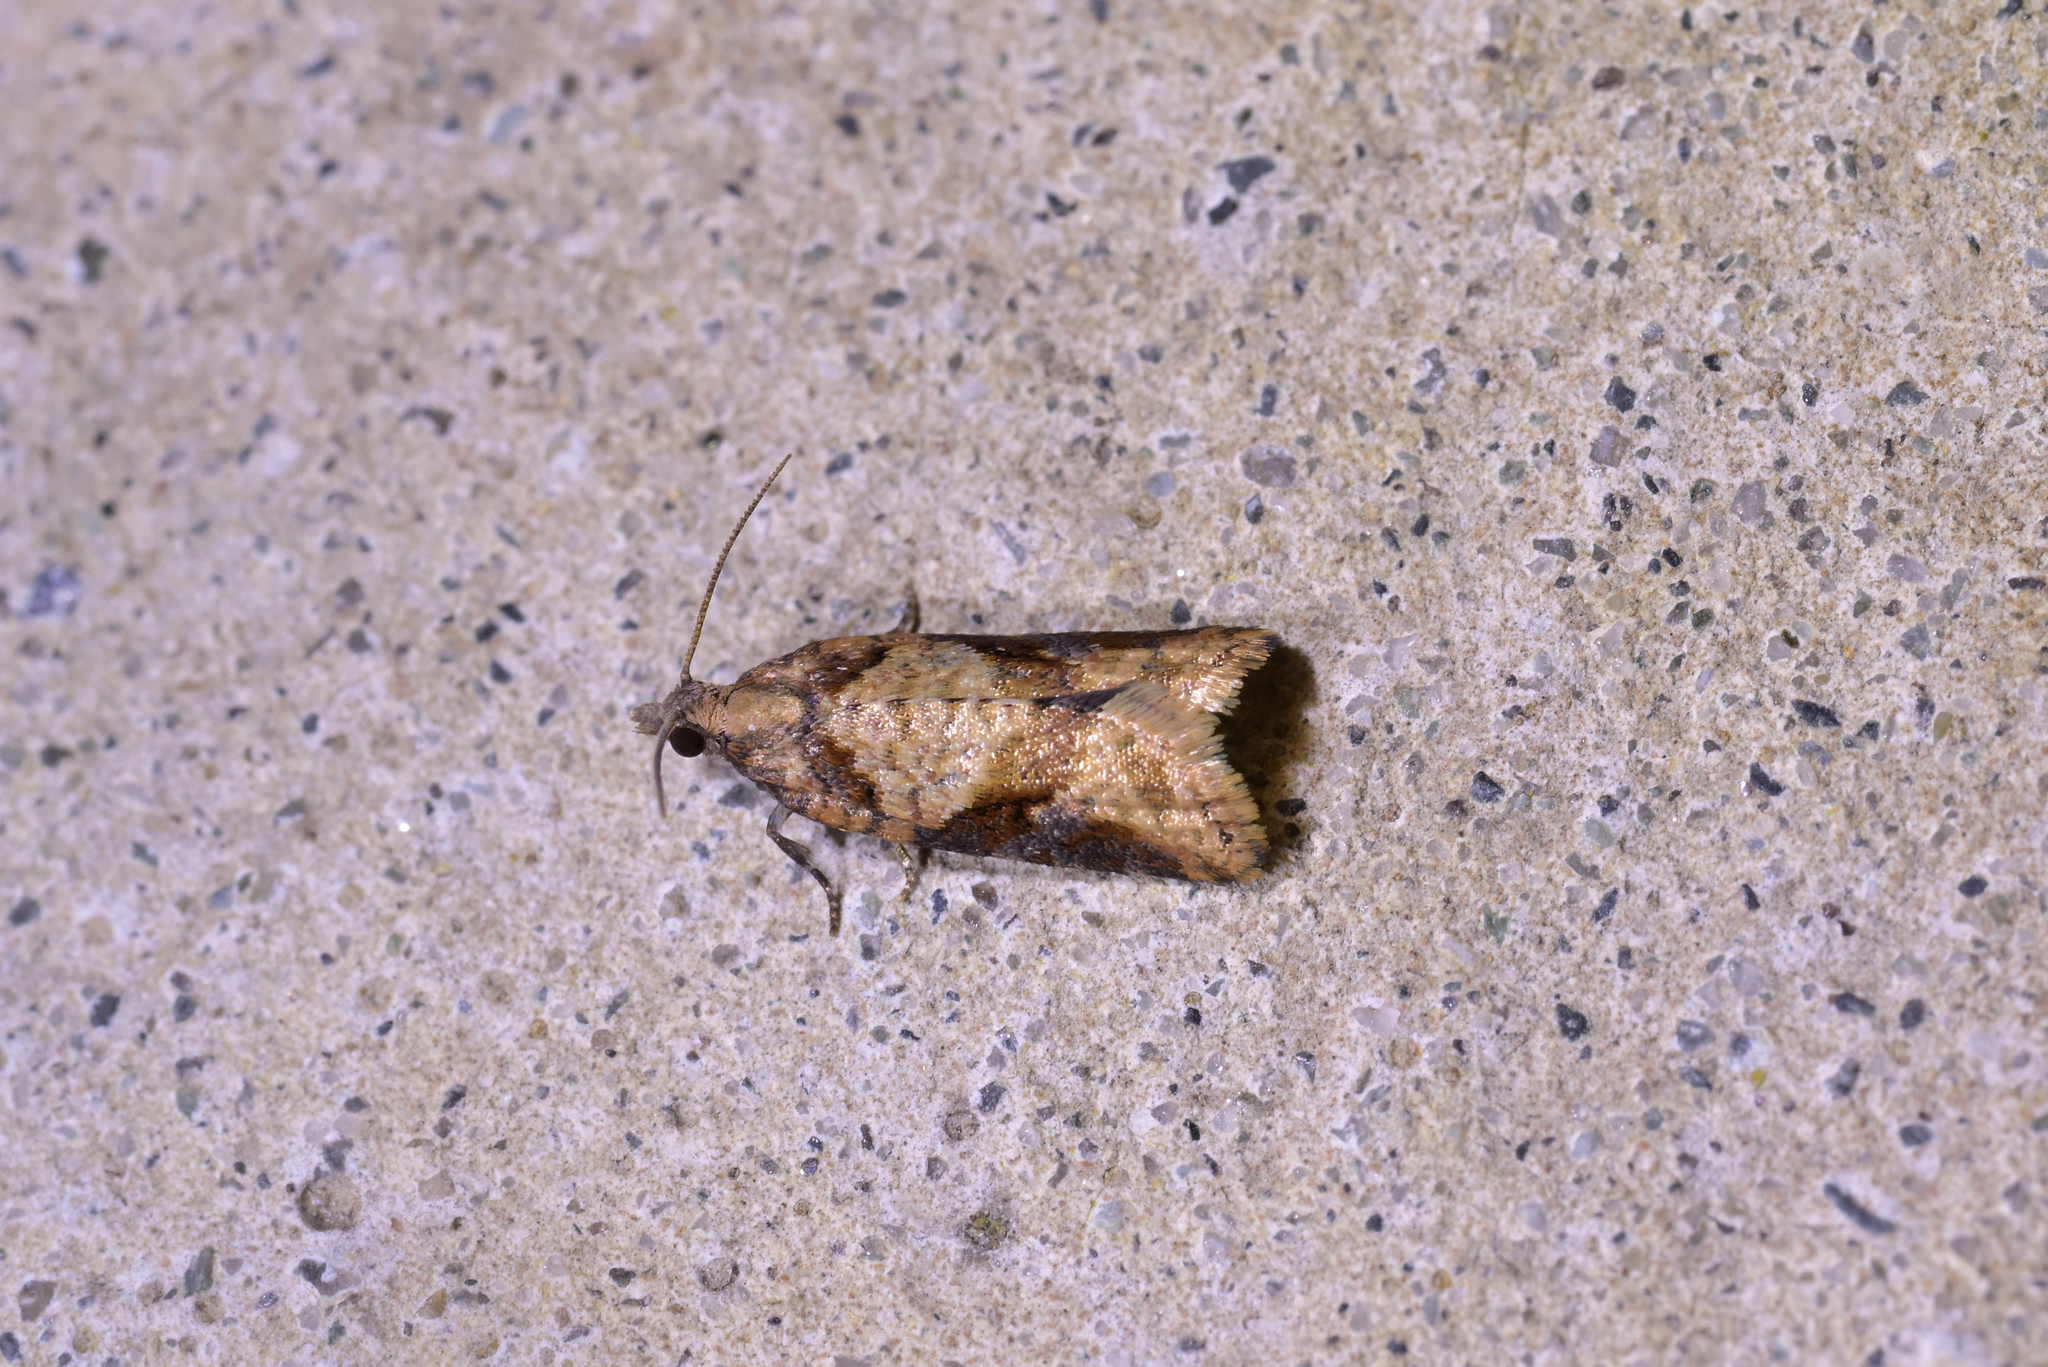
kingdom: Animalia
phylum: Arthropoda
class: Insecta
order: Lepidoptera
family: Tortricidae
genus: Capua
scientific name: Capua semiferana
